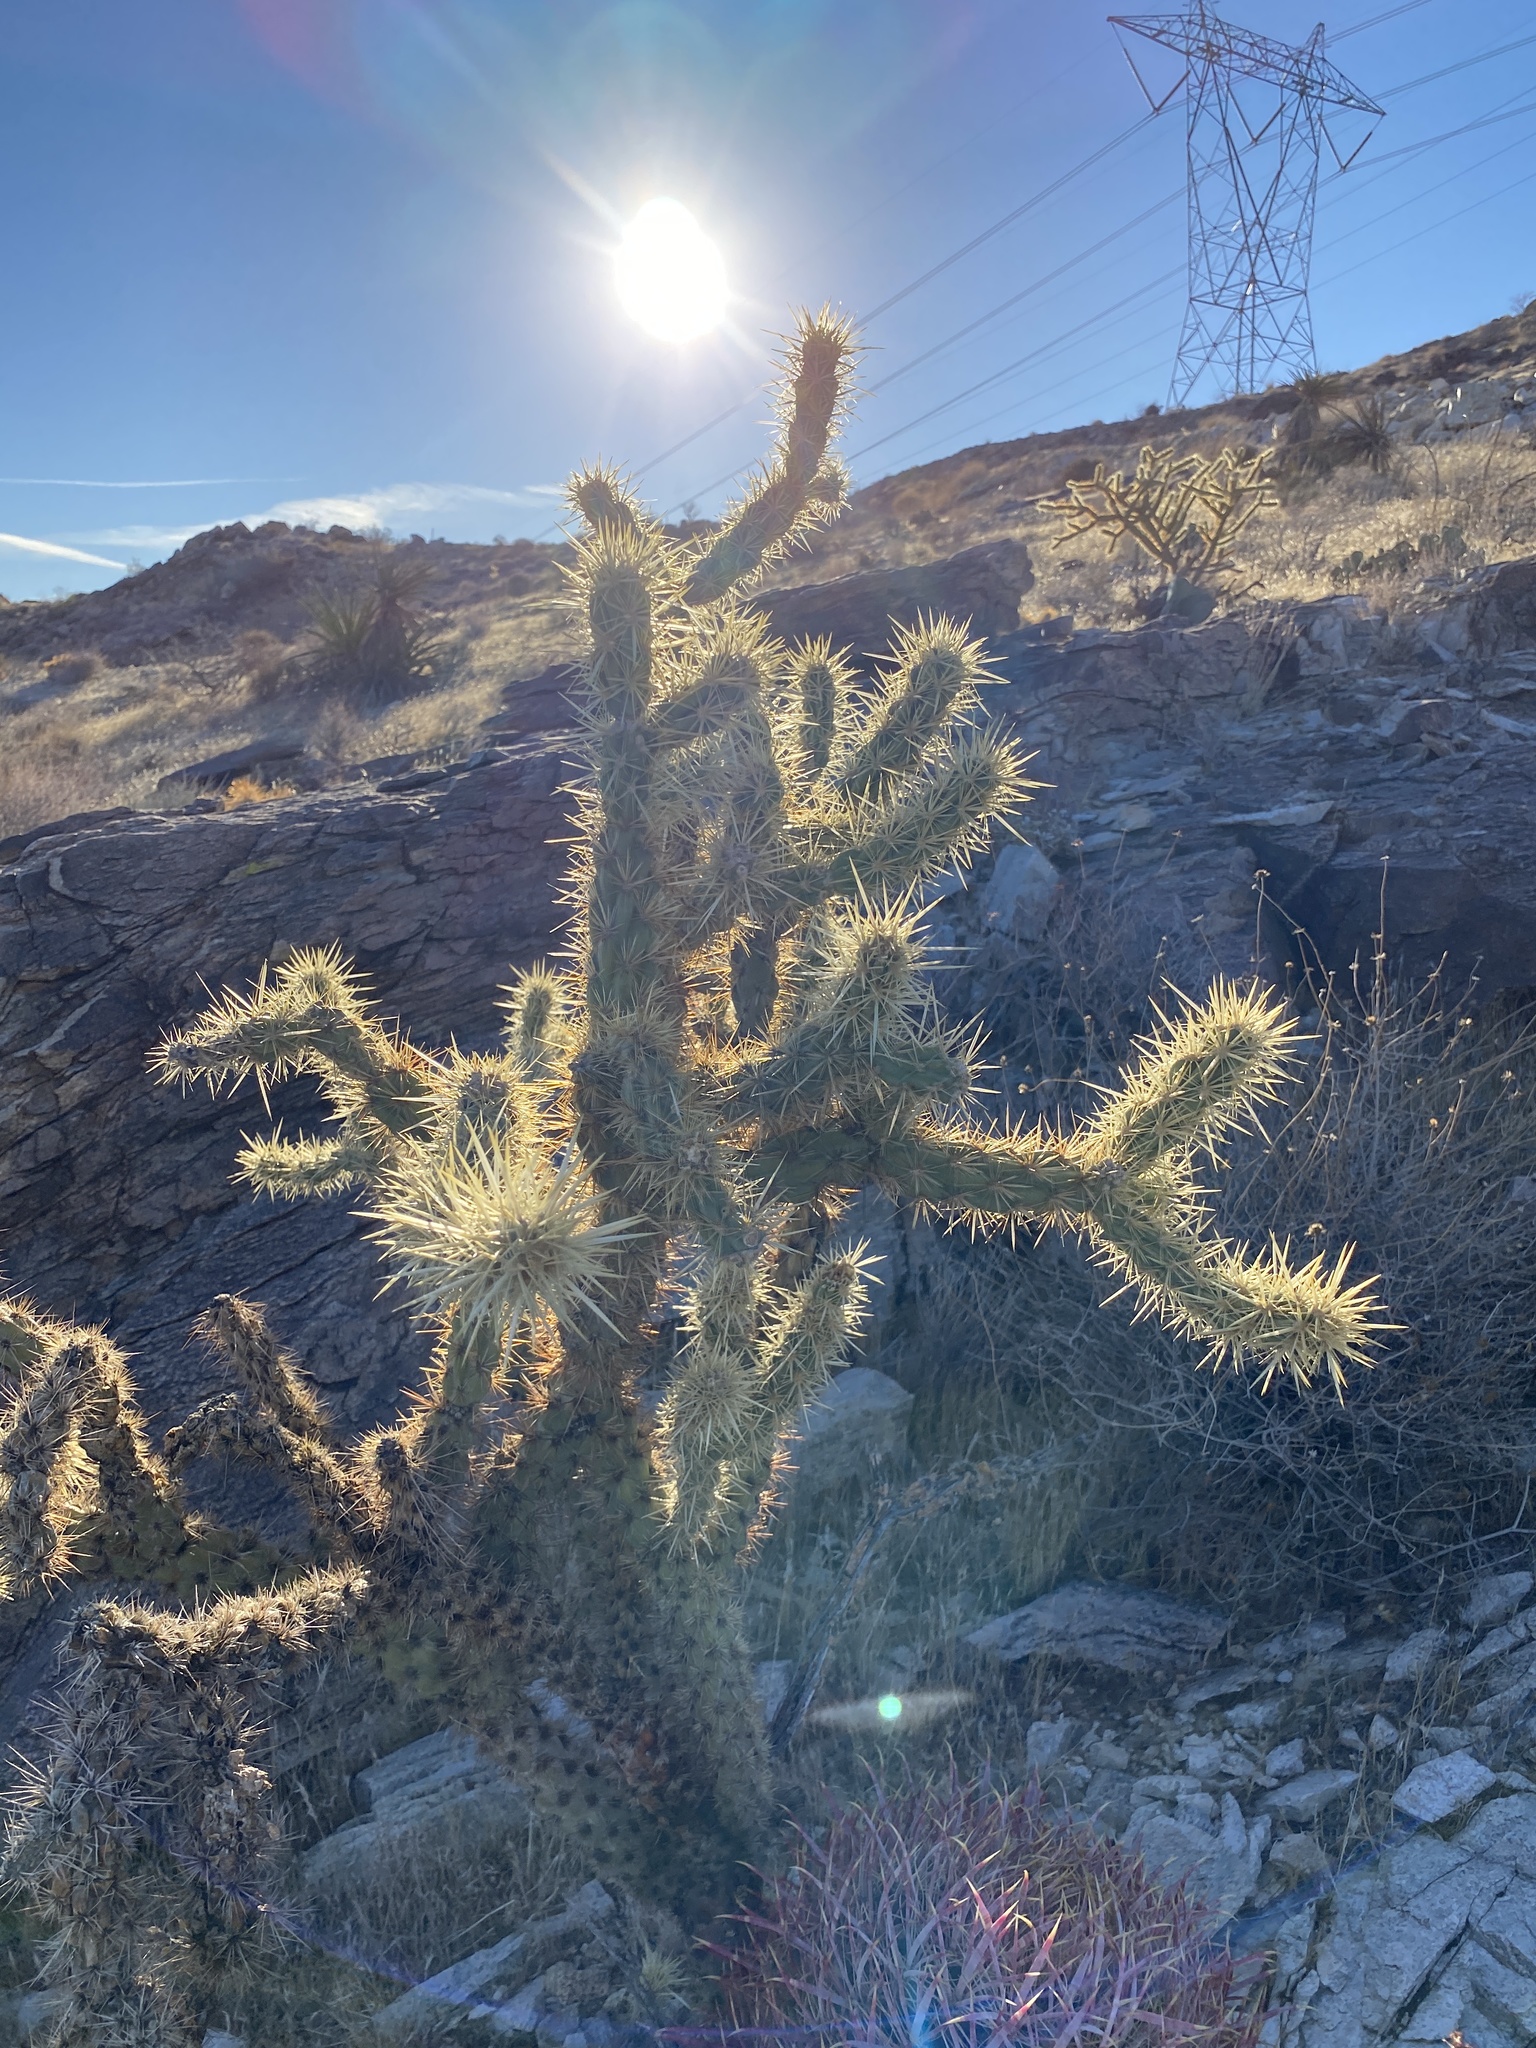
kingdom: Plantae
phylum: Tracheophyta
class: Magnoliopsida
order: Caryophyllales
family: Cactaceae
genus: Cylindropuntia
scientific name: Cylindropuntia acanthocarpa
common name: Buckhorn cholla
